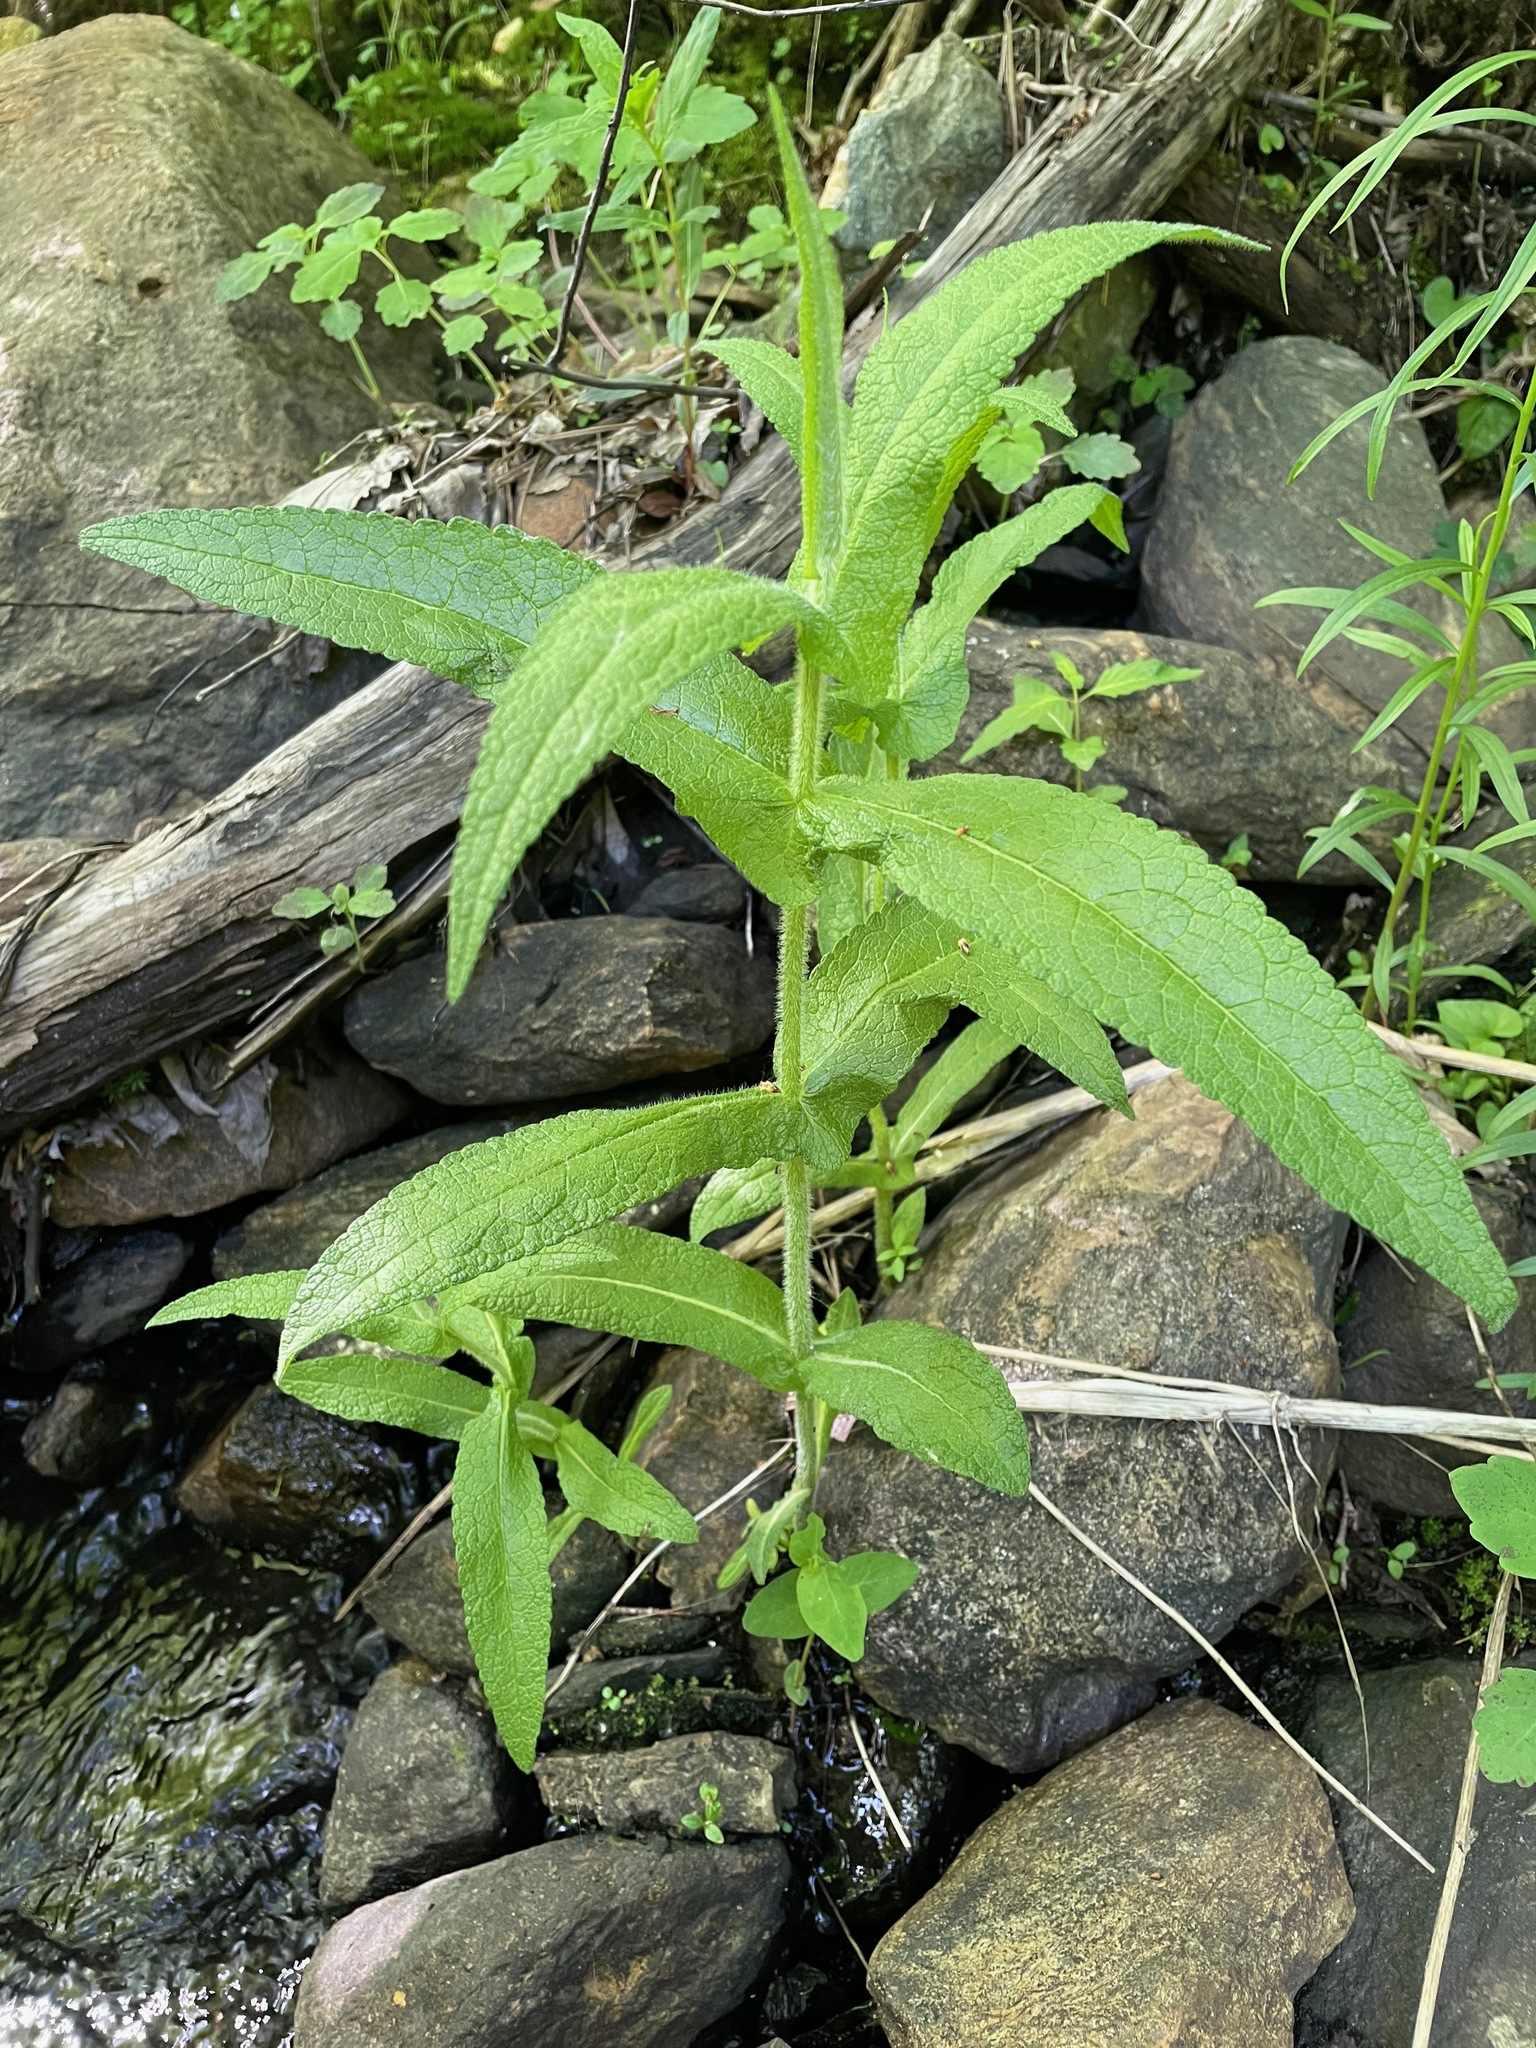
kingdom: Plantae
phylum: Tracheophyta
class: Magnoliopsida
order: Asterales
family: Asteraceae
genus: Eupatorium
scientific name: Eupatorium perfoliatum
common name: Boneset
